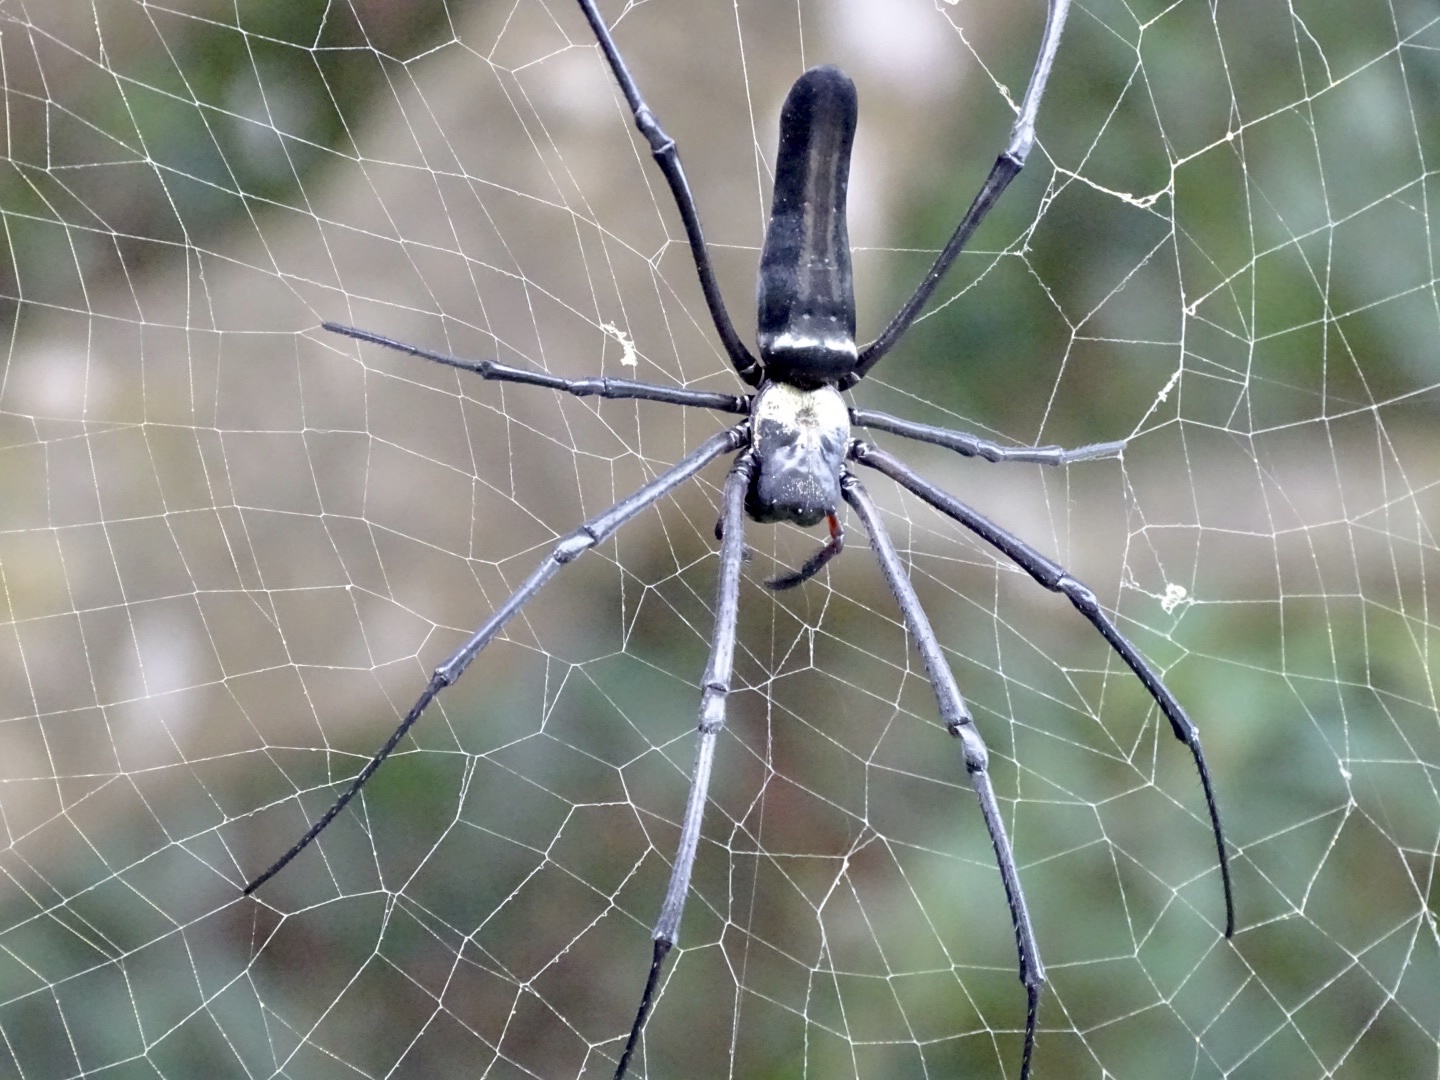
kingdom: Animalia
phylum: Arthropoda
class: Arachnida
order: Araneae
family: Araneidae
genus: Nephila
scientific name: Nephila pilipes
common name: Giant golden orb weaver
